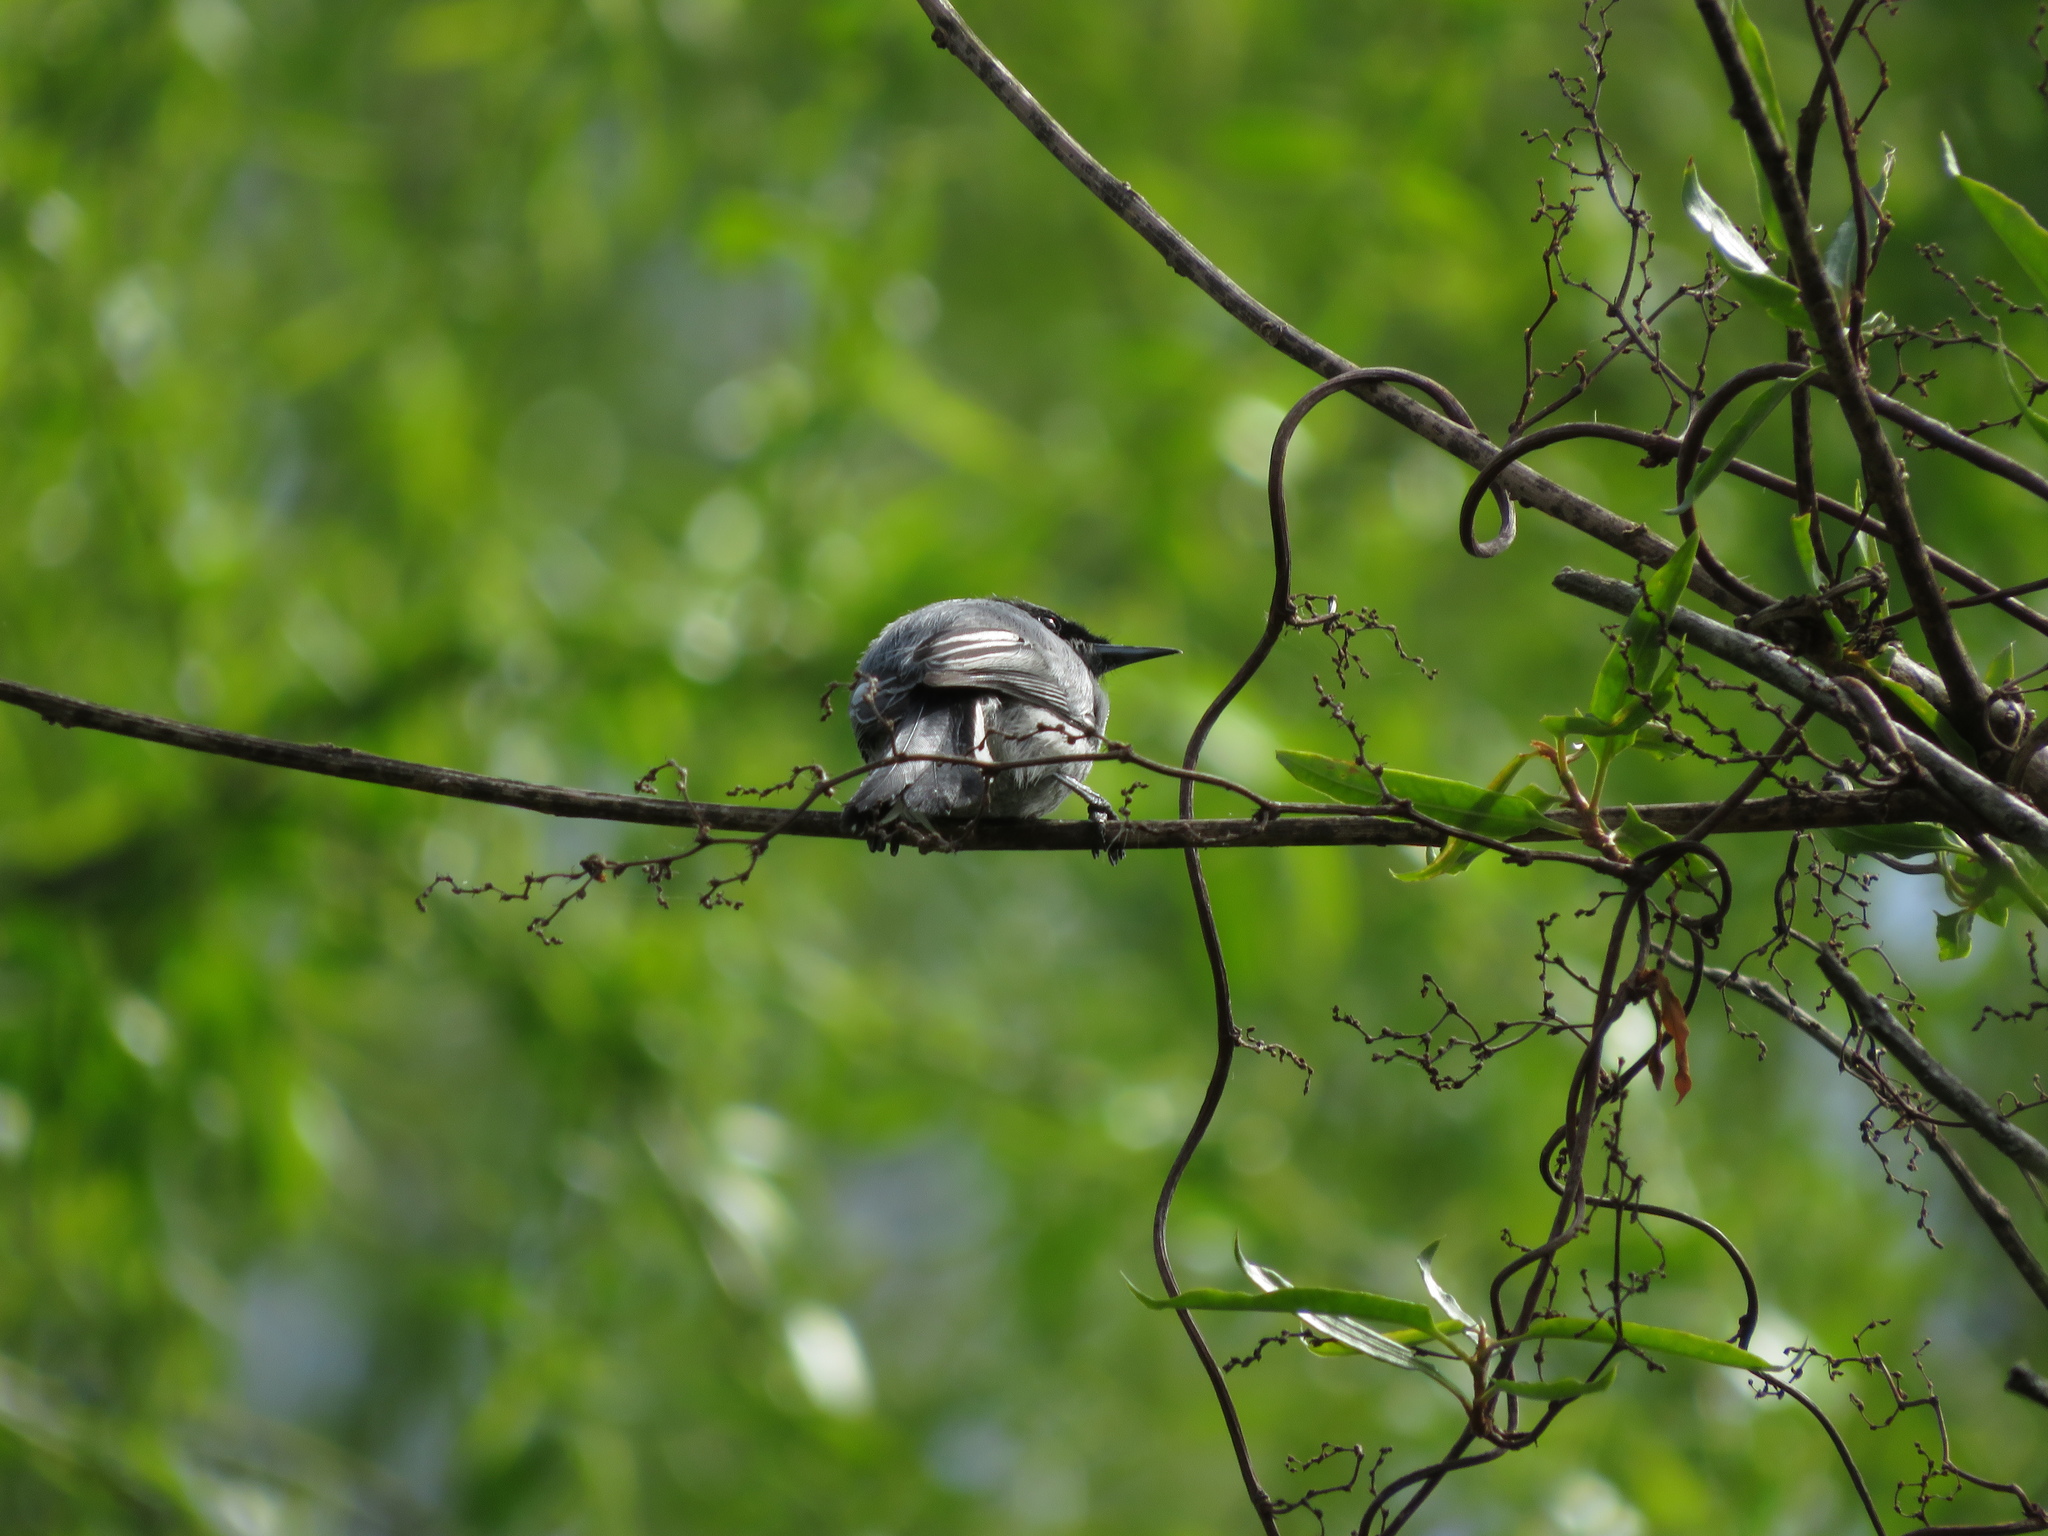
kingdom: Animalia
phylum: Chordata
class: Aves
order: Passeriformes
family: Polioptilidae
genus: Polioptila
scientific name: Polioptila dumicola
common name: Masked gnatcatcher
